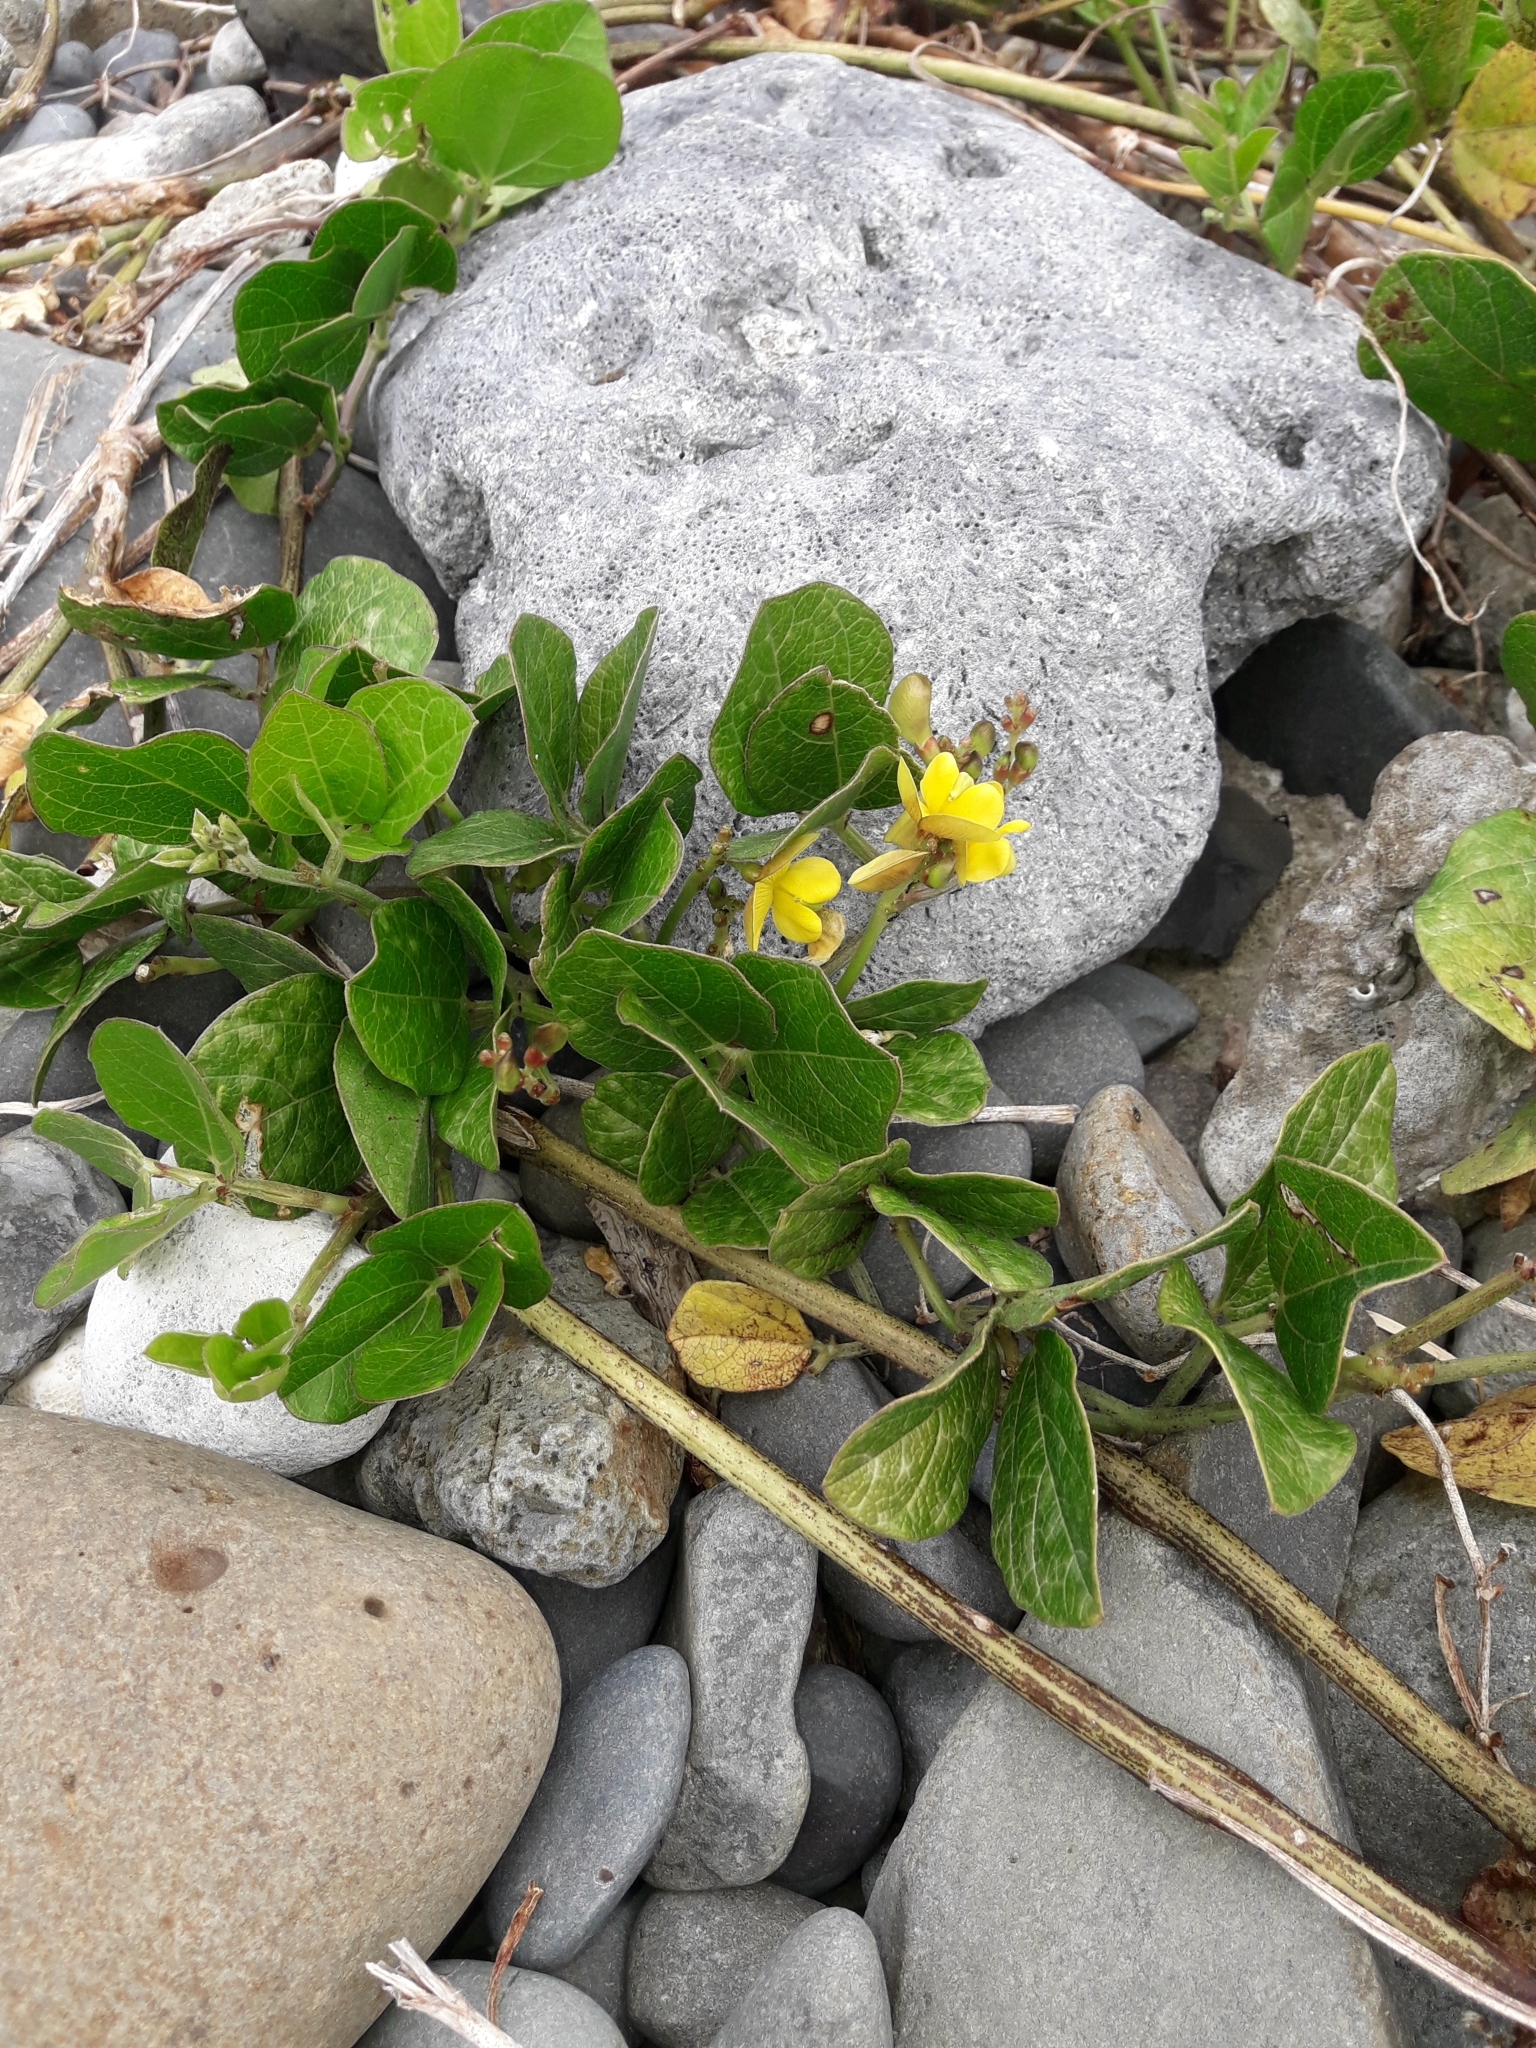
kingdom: Plantae
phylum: Tracheophyta
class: Magnoliopsida
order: Fabales
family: Fabaceae
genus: Vigna
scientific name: Vigna marina
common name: Dune-bean
